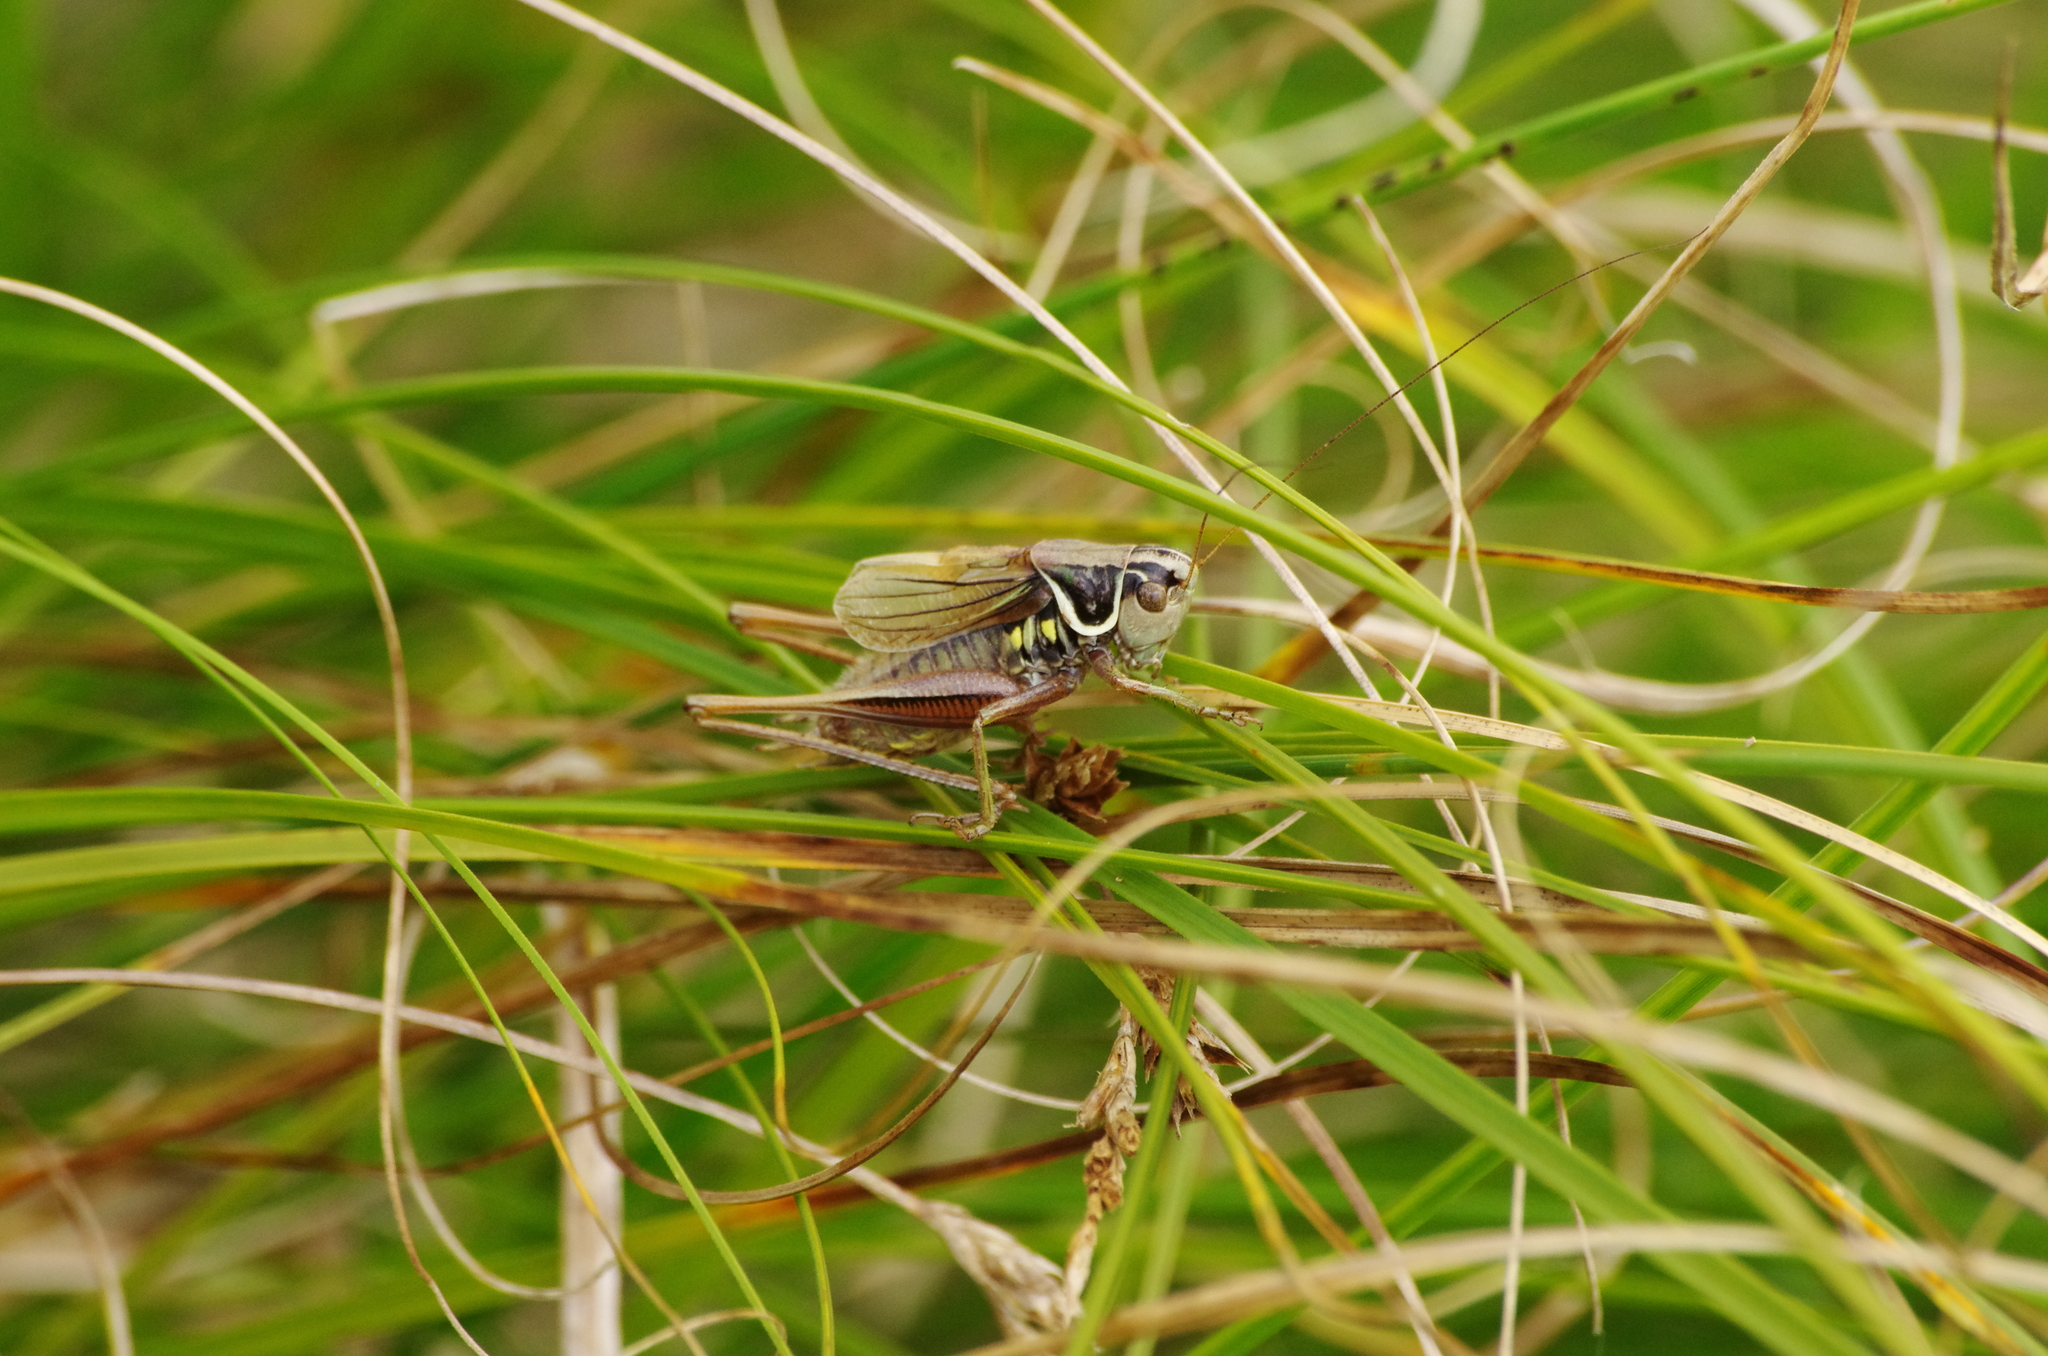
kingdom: Animalia
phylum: Arthropoda
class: Insecta
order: Orthoptera
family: Tettigoniidae
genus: Roeseliana
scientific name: Roeseliana roeselii
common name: Roesel's bush cricket
